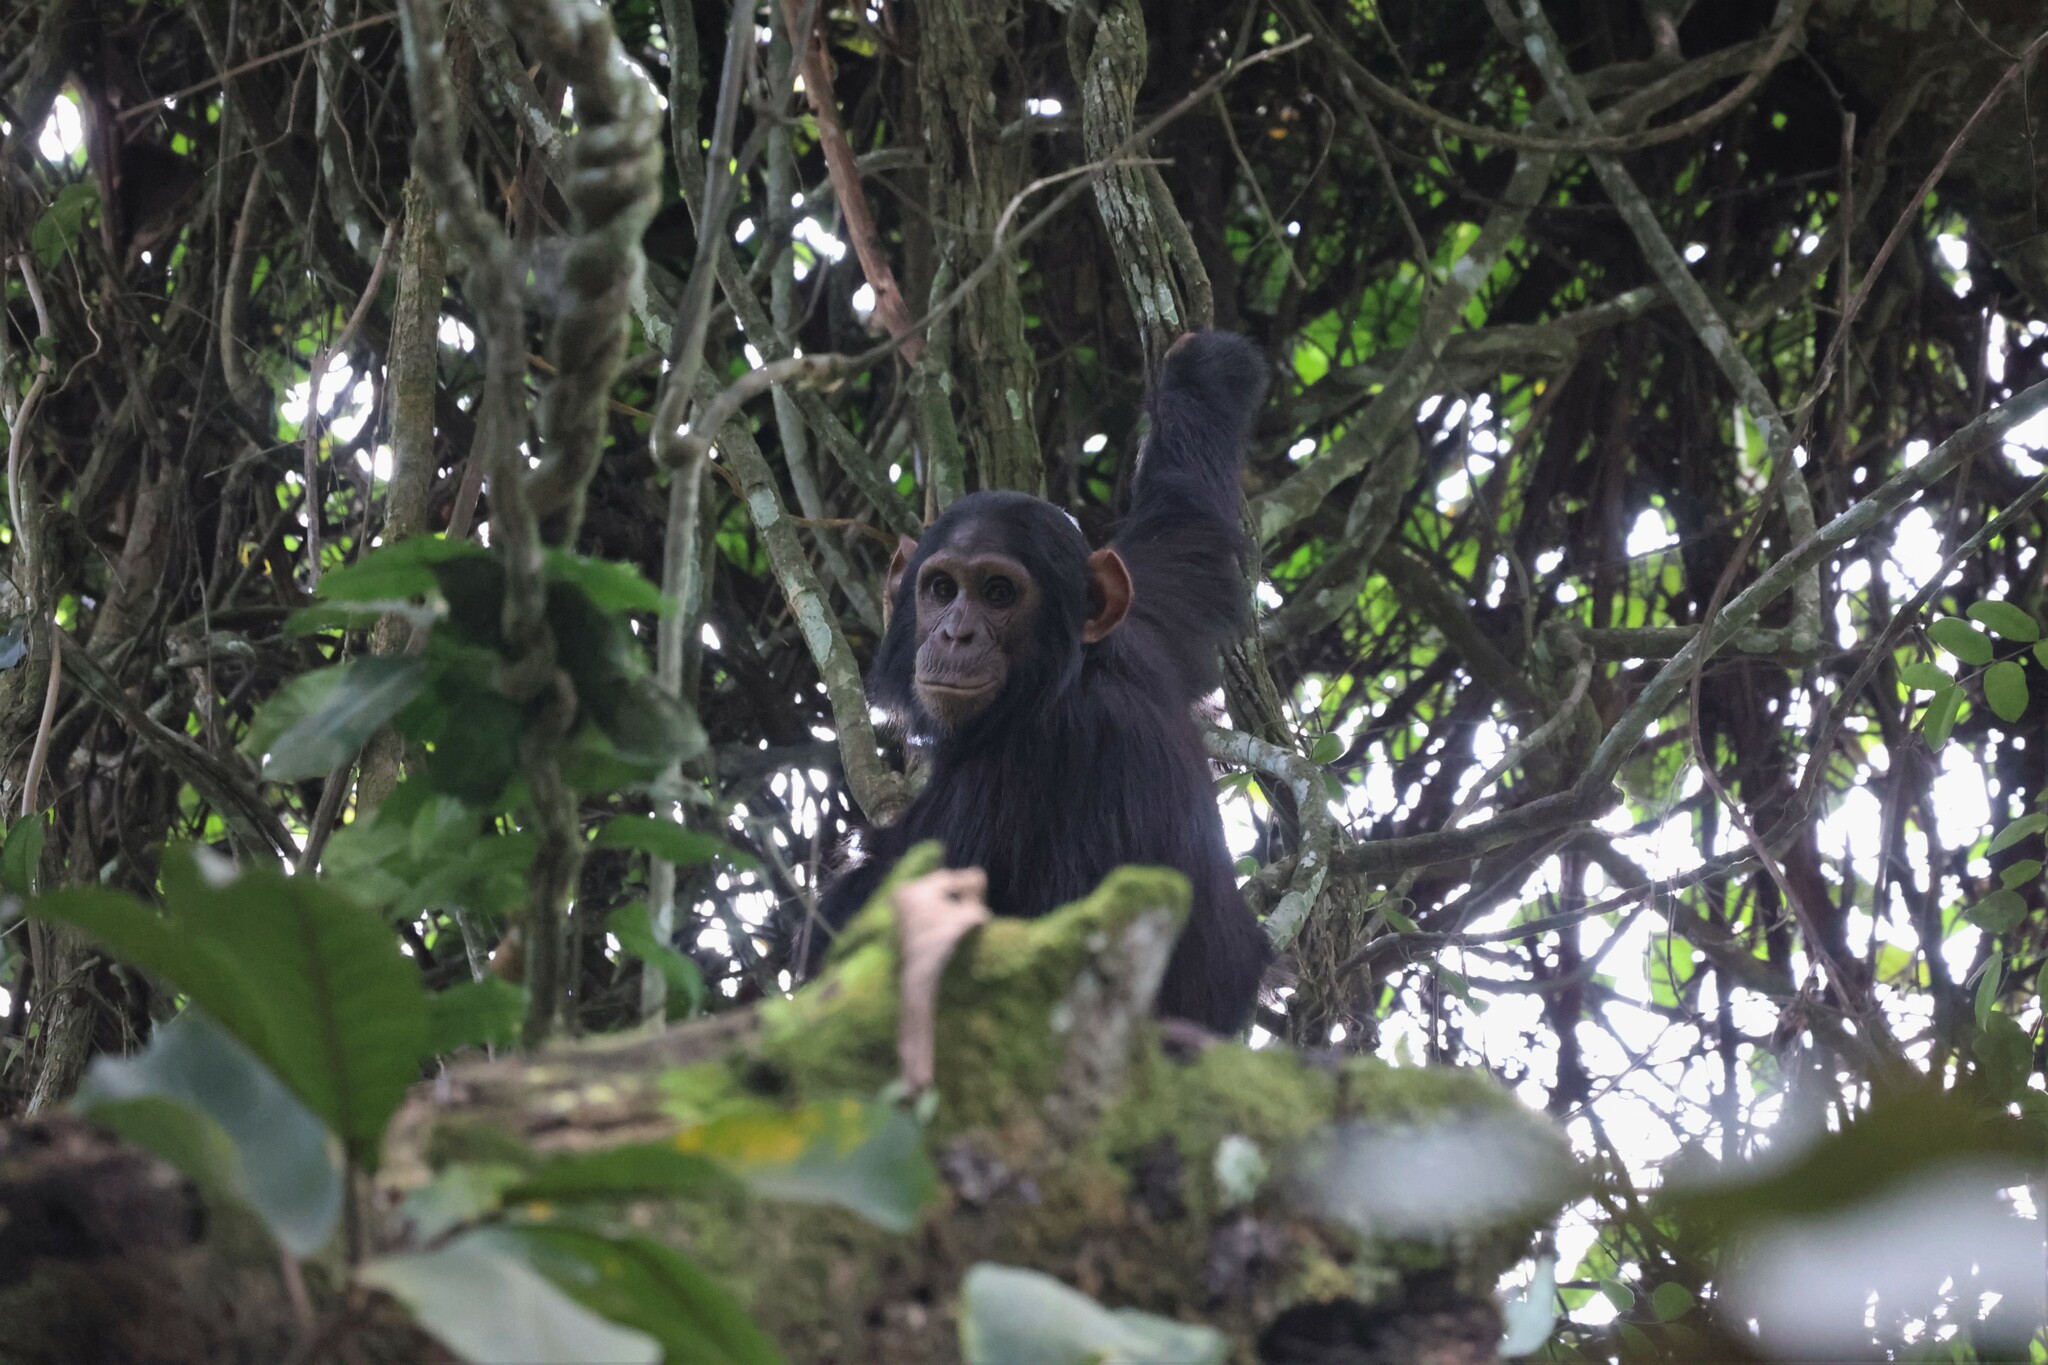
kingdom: Animalia
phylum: Chordata
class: Mammalia
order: Primates
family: Hominidae
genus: Pan
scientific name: Pan troglodytes
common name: Chimpanzee
